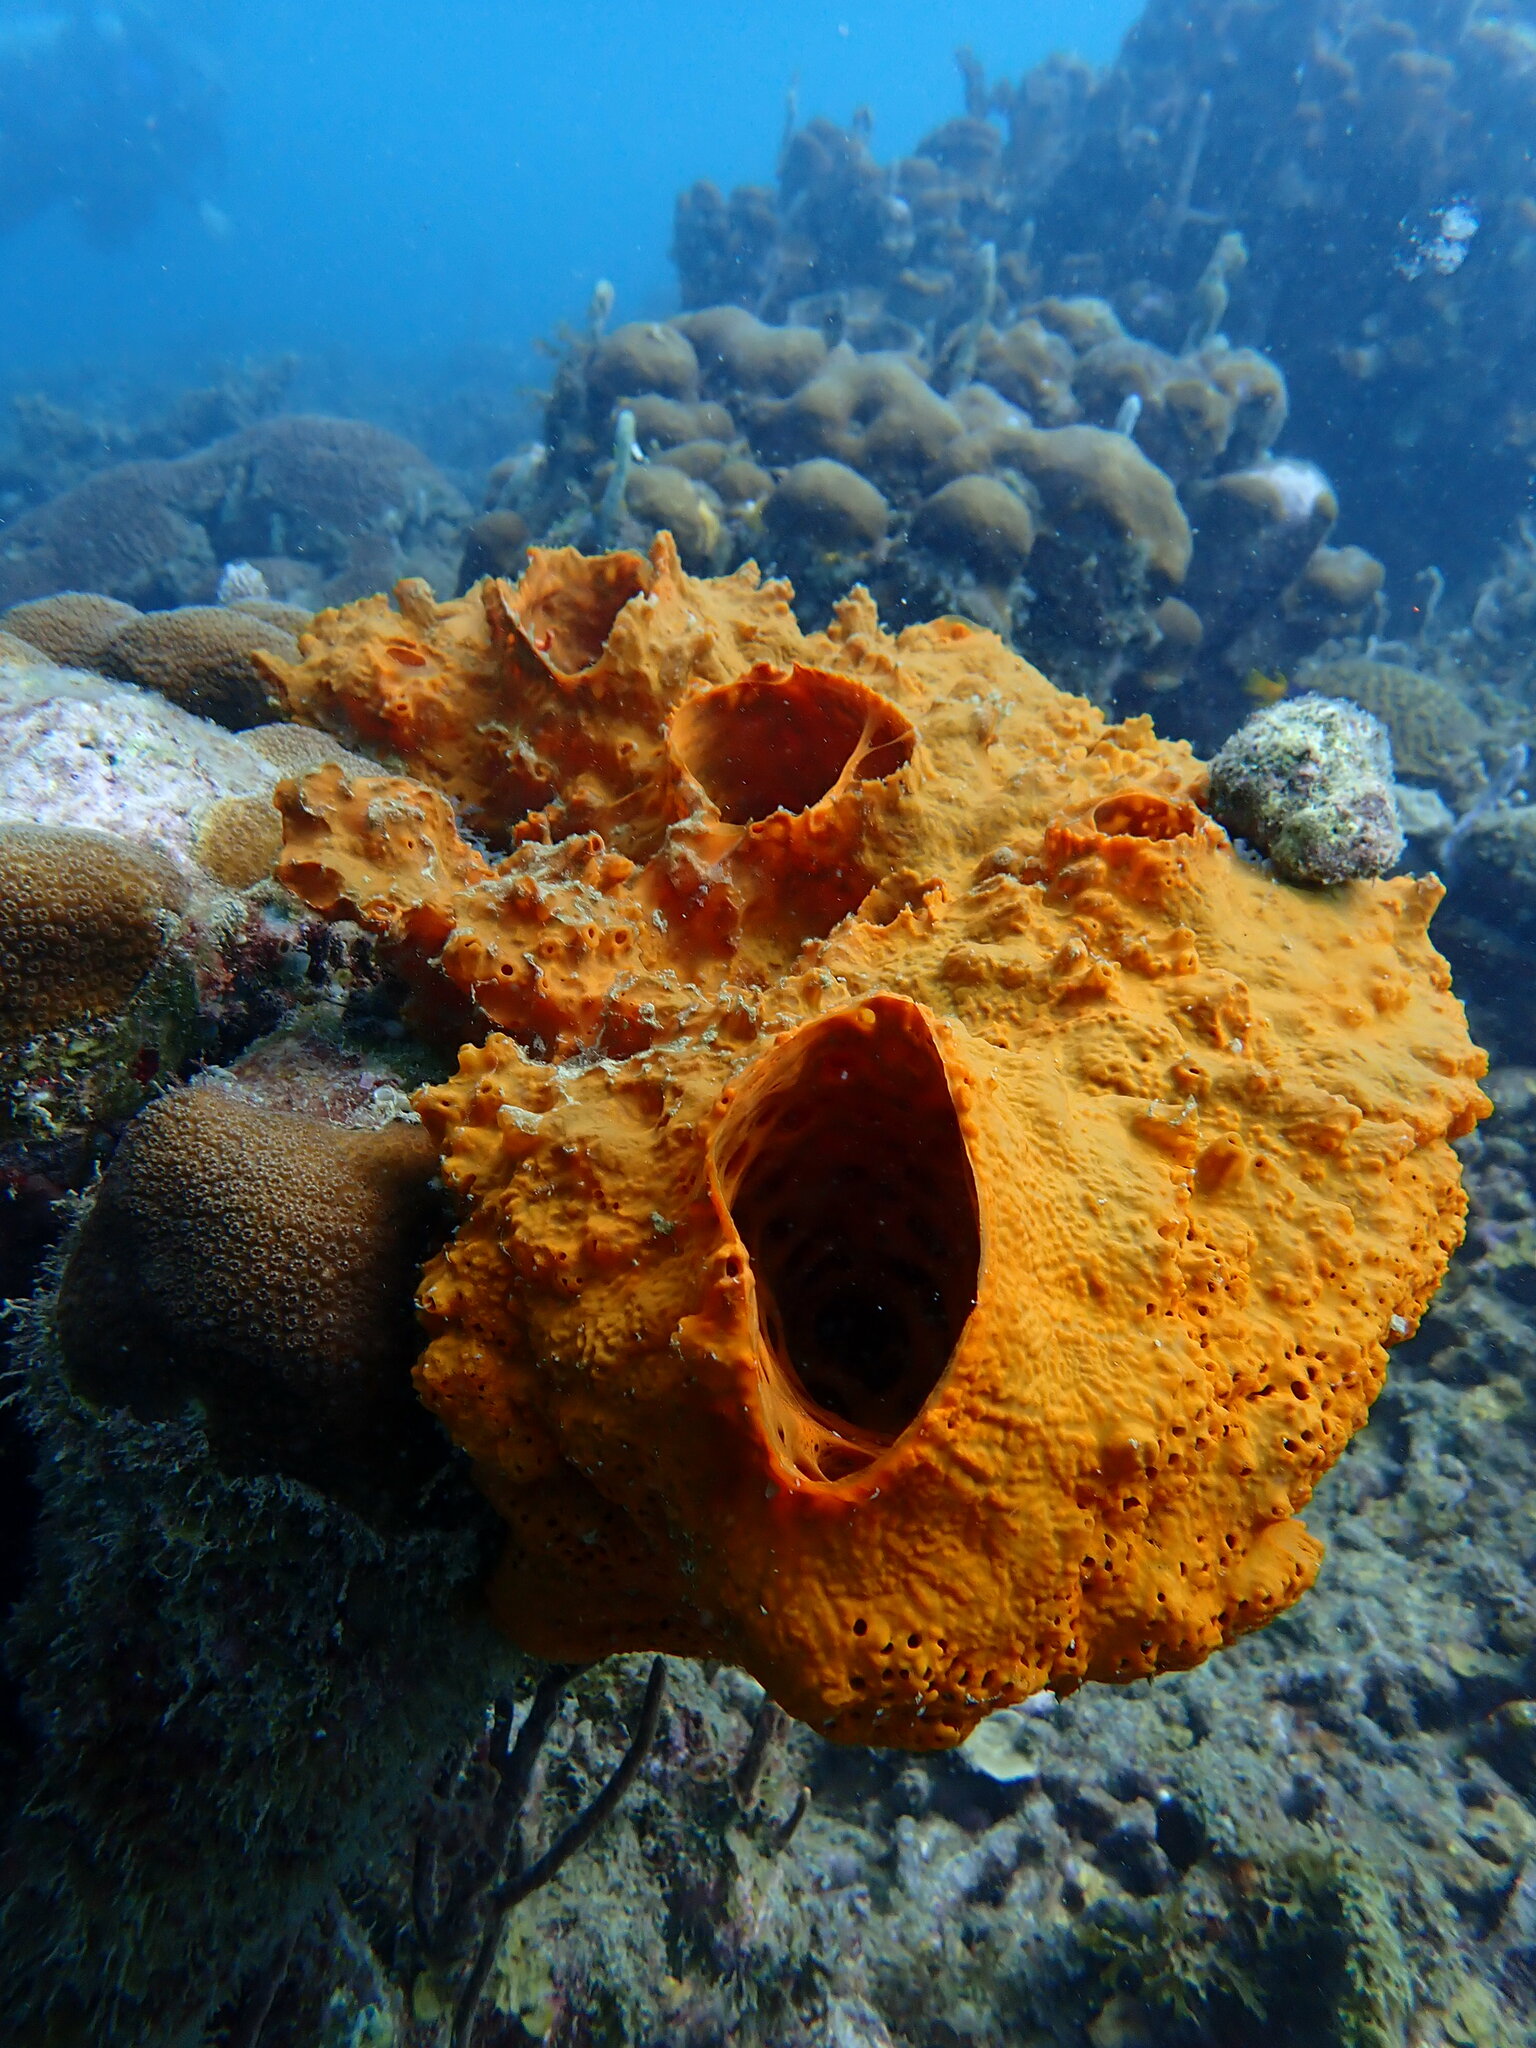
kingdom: Animalia
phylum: Porifera
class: Demospongiae
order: Poecilosclerida
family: Coelosphaeridae
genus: Lissodendoryx
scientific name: Lissodendoryx colombiensis
